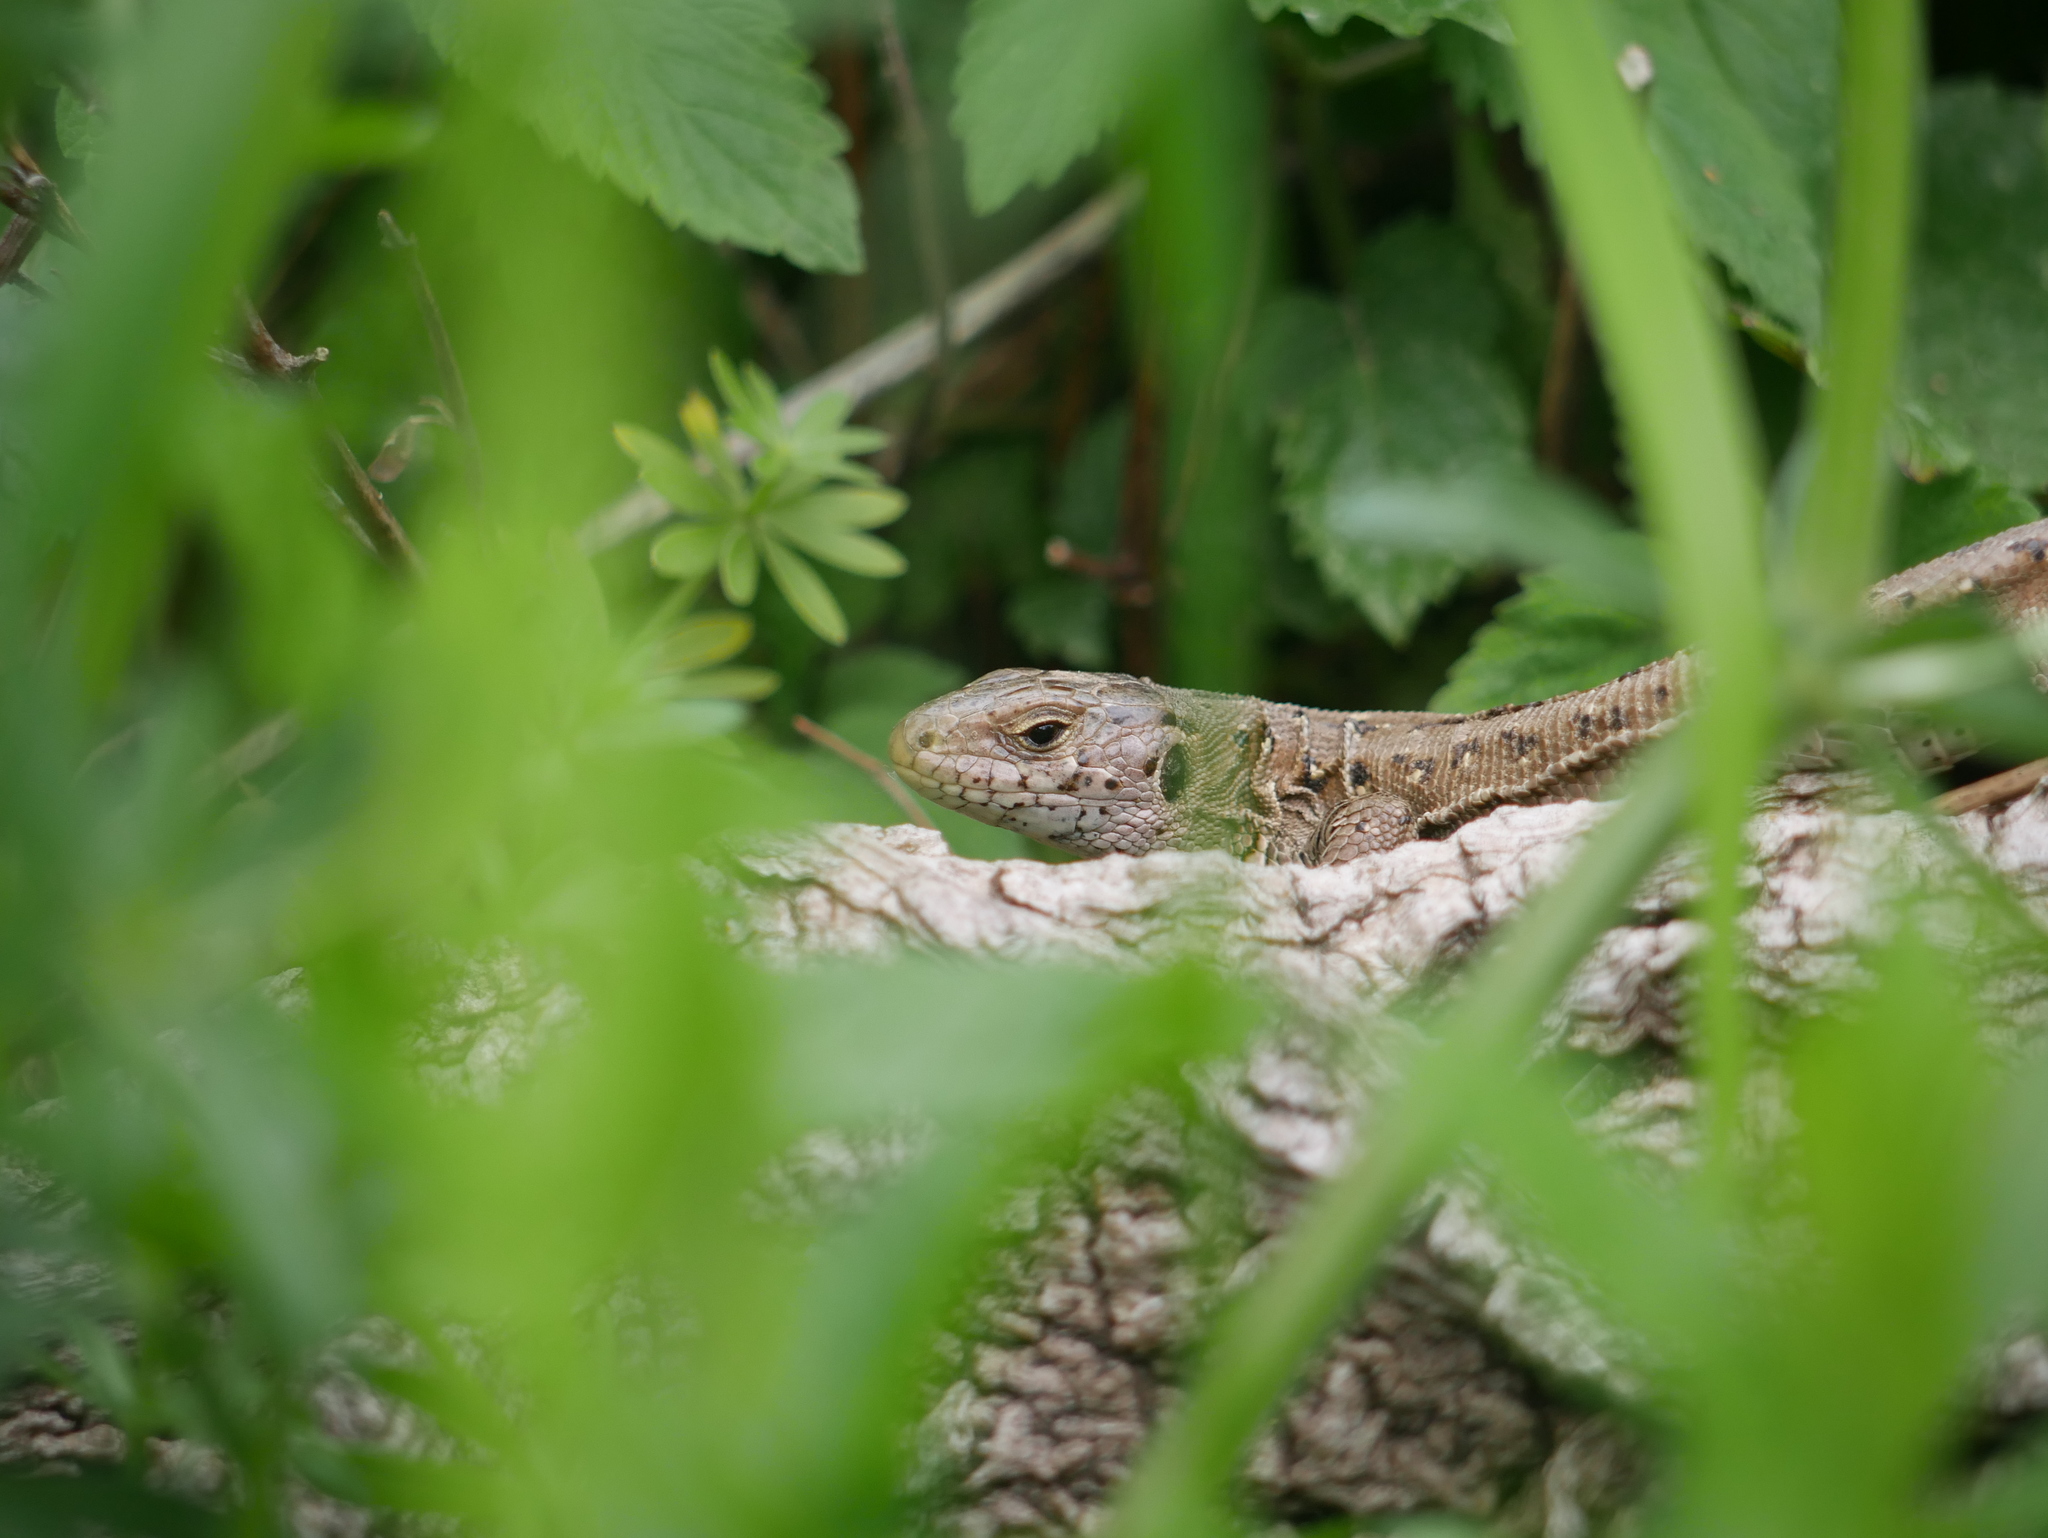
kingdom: Animalia
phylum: Chordata
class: Squamata
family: Lacertidae
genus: Lacerta
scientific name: Lacerta agilis
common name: Sand lizard
